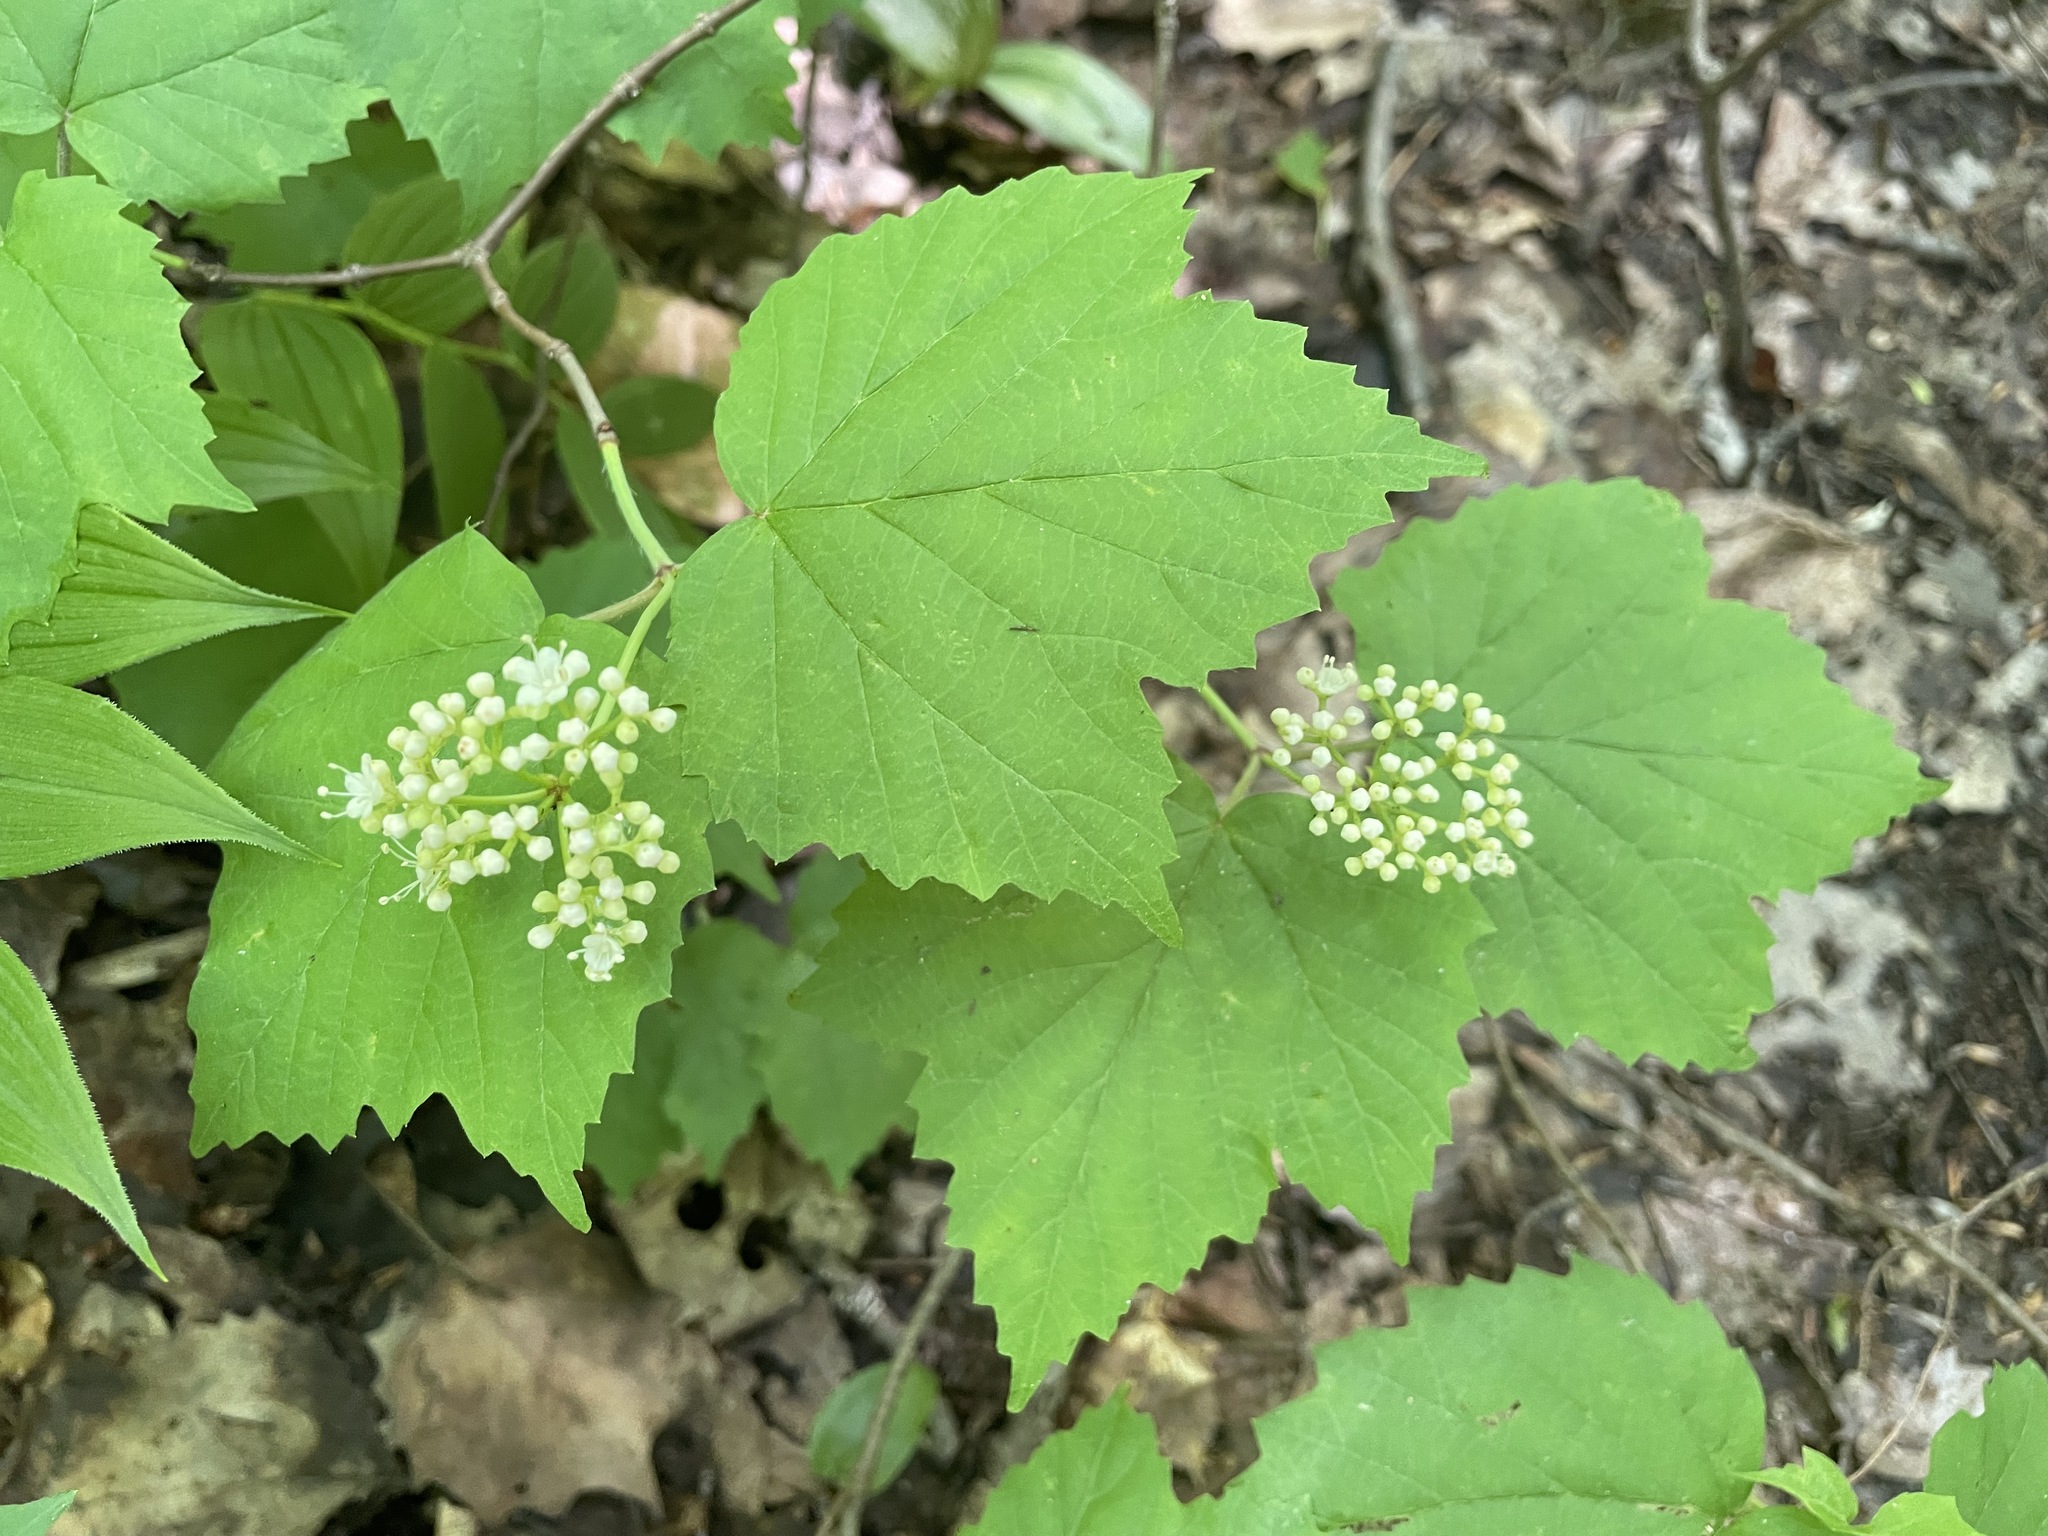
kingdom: Plantae
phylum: Tracheophyta
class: Magnoliopsida
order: Dipsacales
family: Viburnaceae
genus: Viburnum
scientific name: Viburnum acerifolium
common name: Dockmackie
